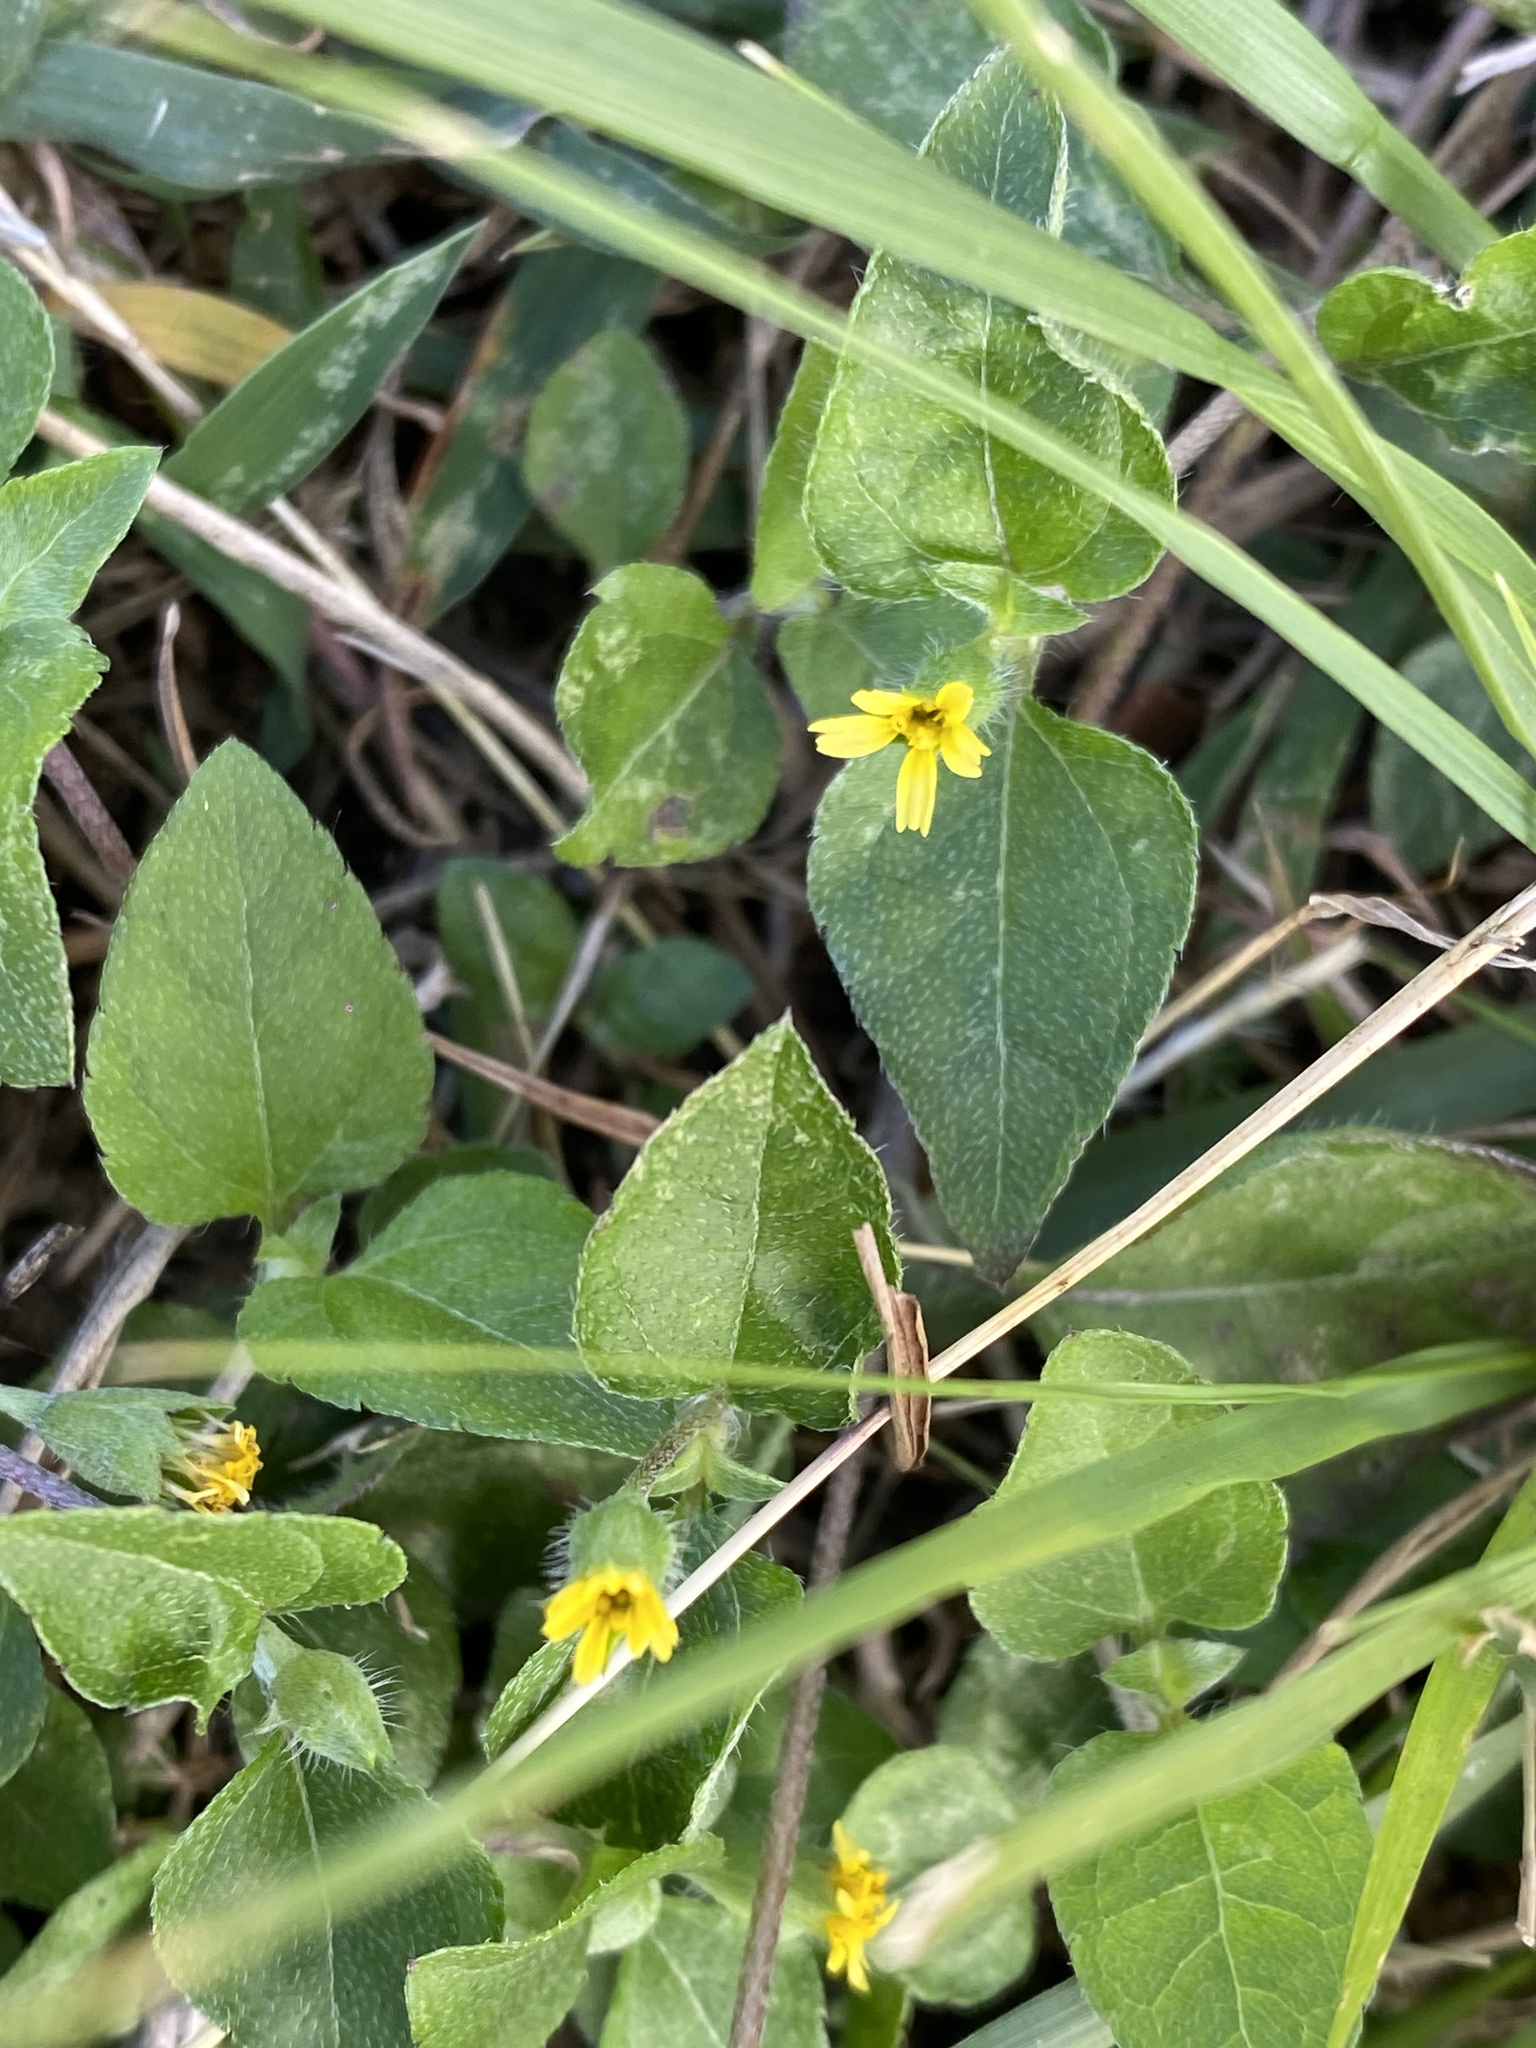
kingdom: Plantae
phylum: Tracheophyta
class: Magnoliopsida
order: Asterales
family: Asteraceae
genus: Calyptocarpus
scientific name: Calyptocarpus vialis
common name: Straggler daisy
